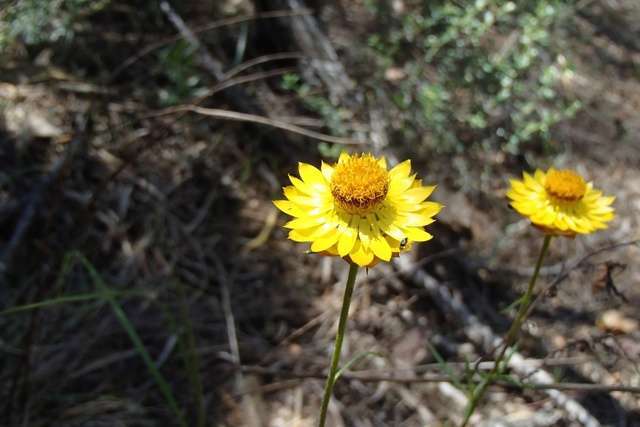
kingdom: Plantae
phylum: Tracheophyta
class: Magnoliopsida
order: Asterales
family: Asteraceae
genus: Xerochrysum
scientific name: Xerochrysum viscosum
